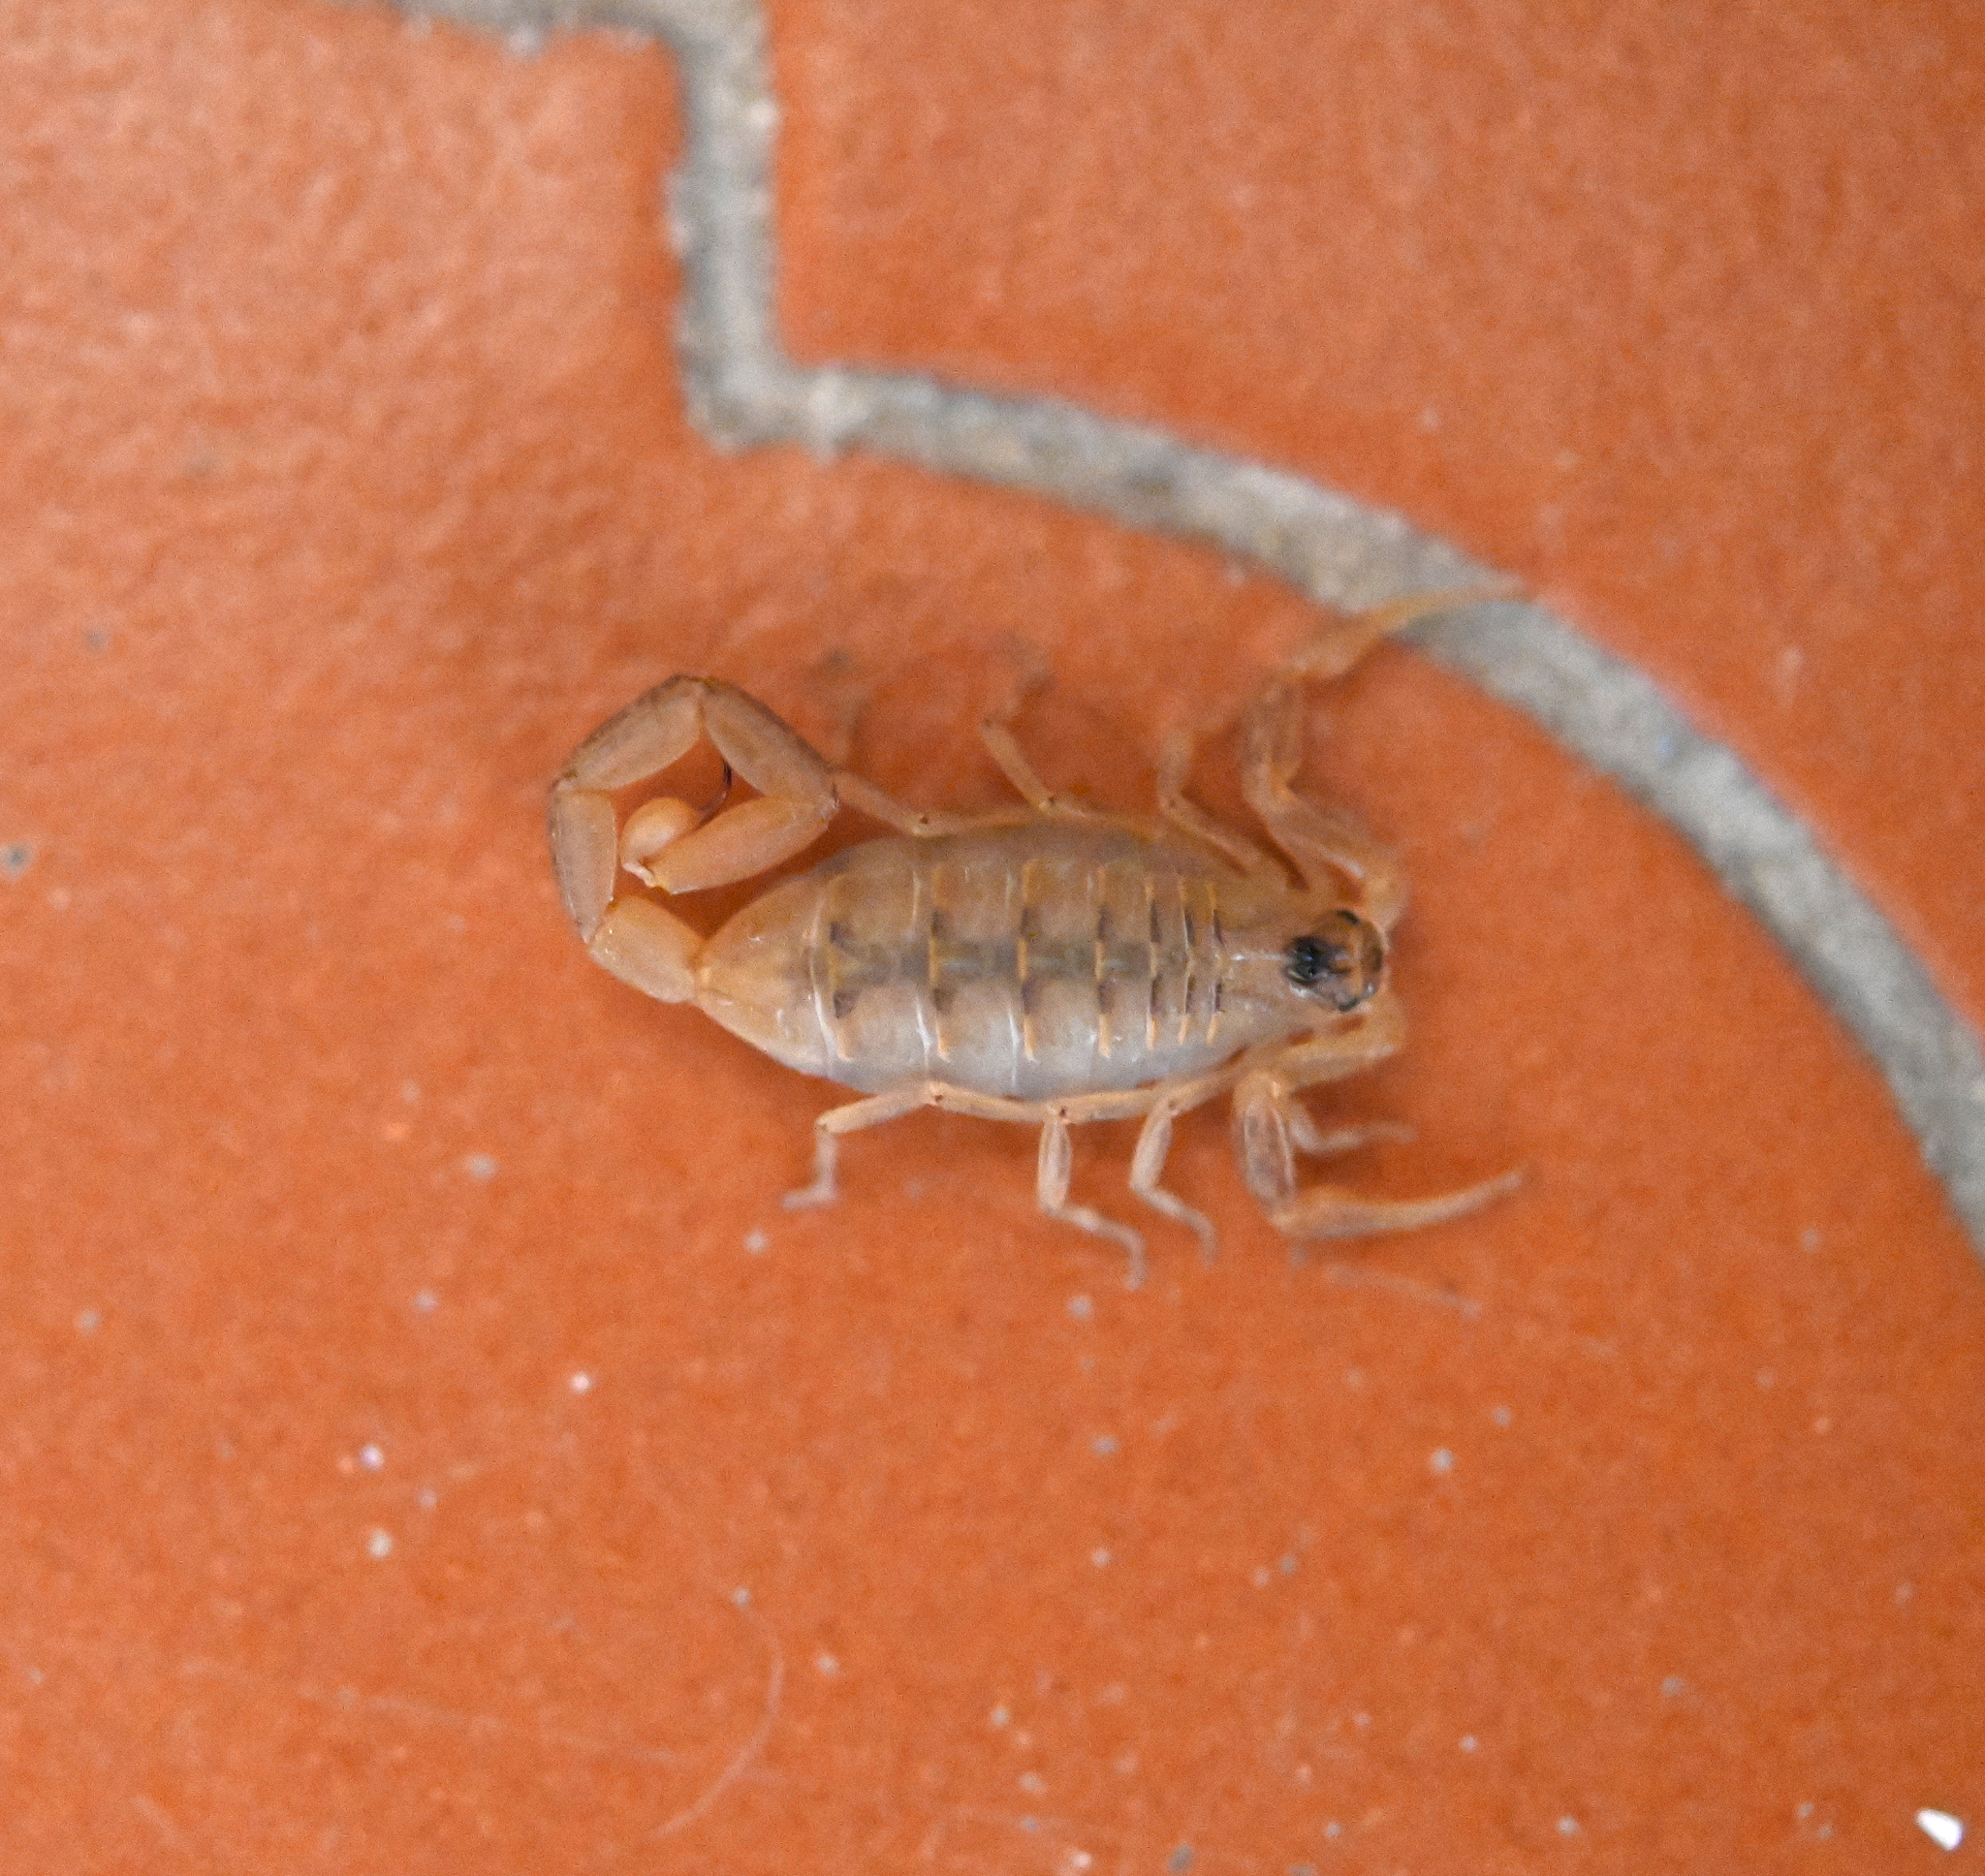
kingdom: Animalia
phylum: Arthropoda
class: Arachnida
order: Scorpiones
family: Buthidae
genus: Centruroides
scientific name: Centruroides exilicauda
